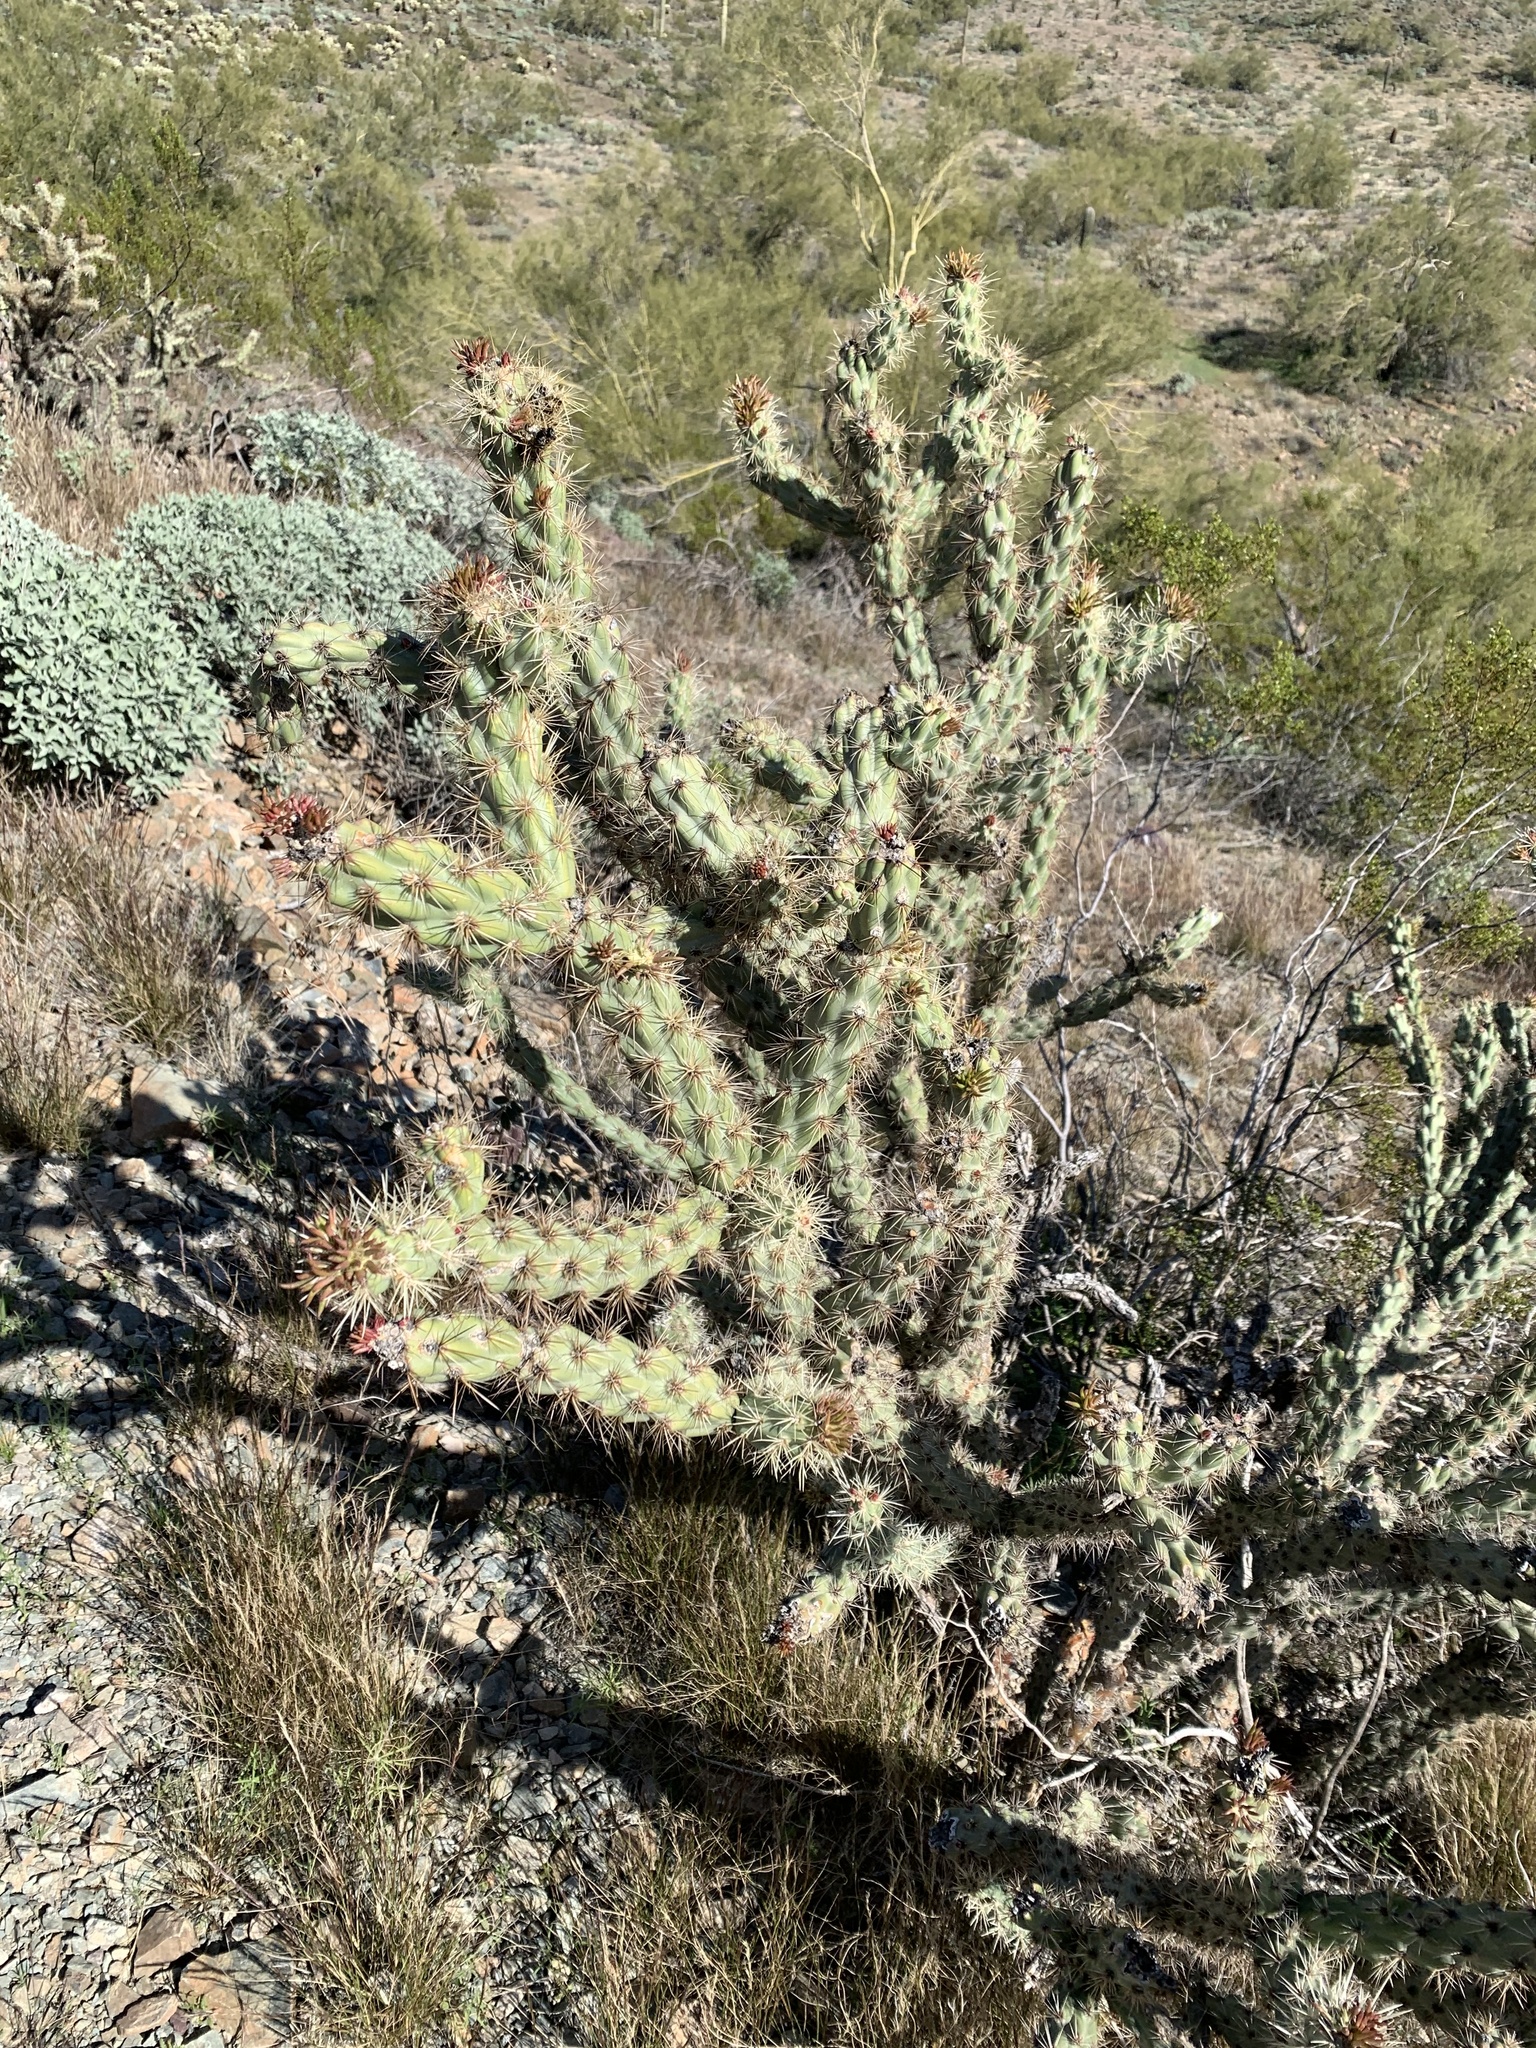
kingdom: Plantae
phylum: Tracheophyta
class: Magnoliopsida
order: Caryophyllales
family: Cactaceae
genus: Cylindropuntia
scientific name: Cylindropuntia acanthocarpa
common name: Buckhorn cholla
